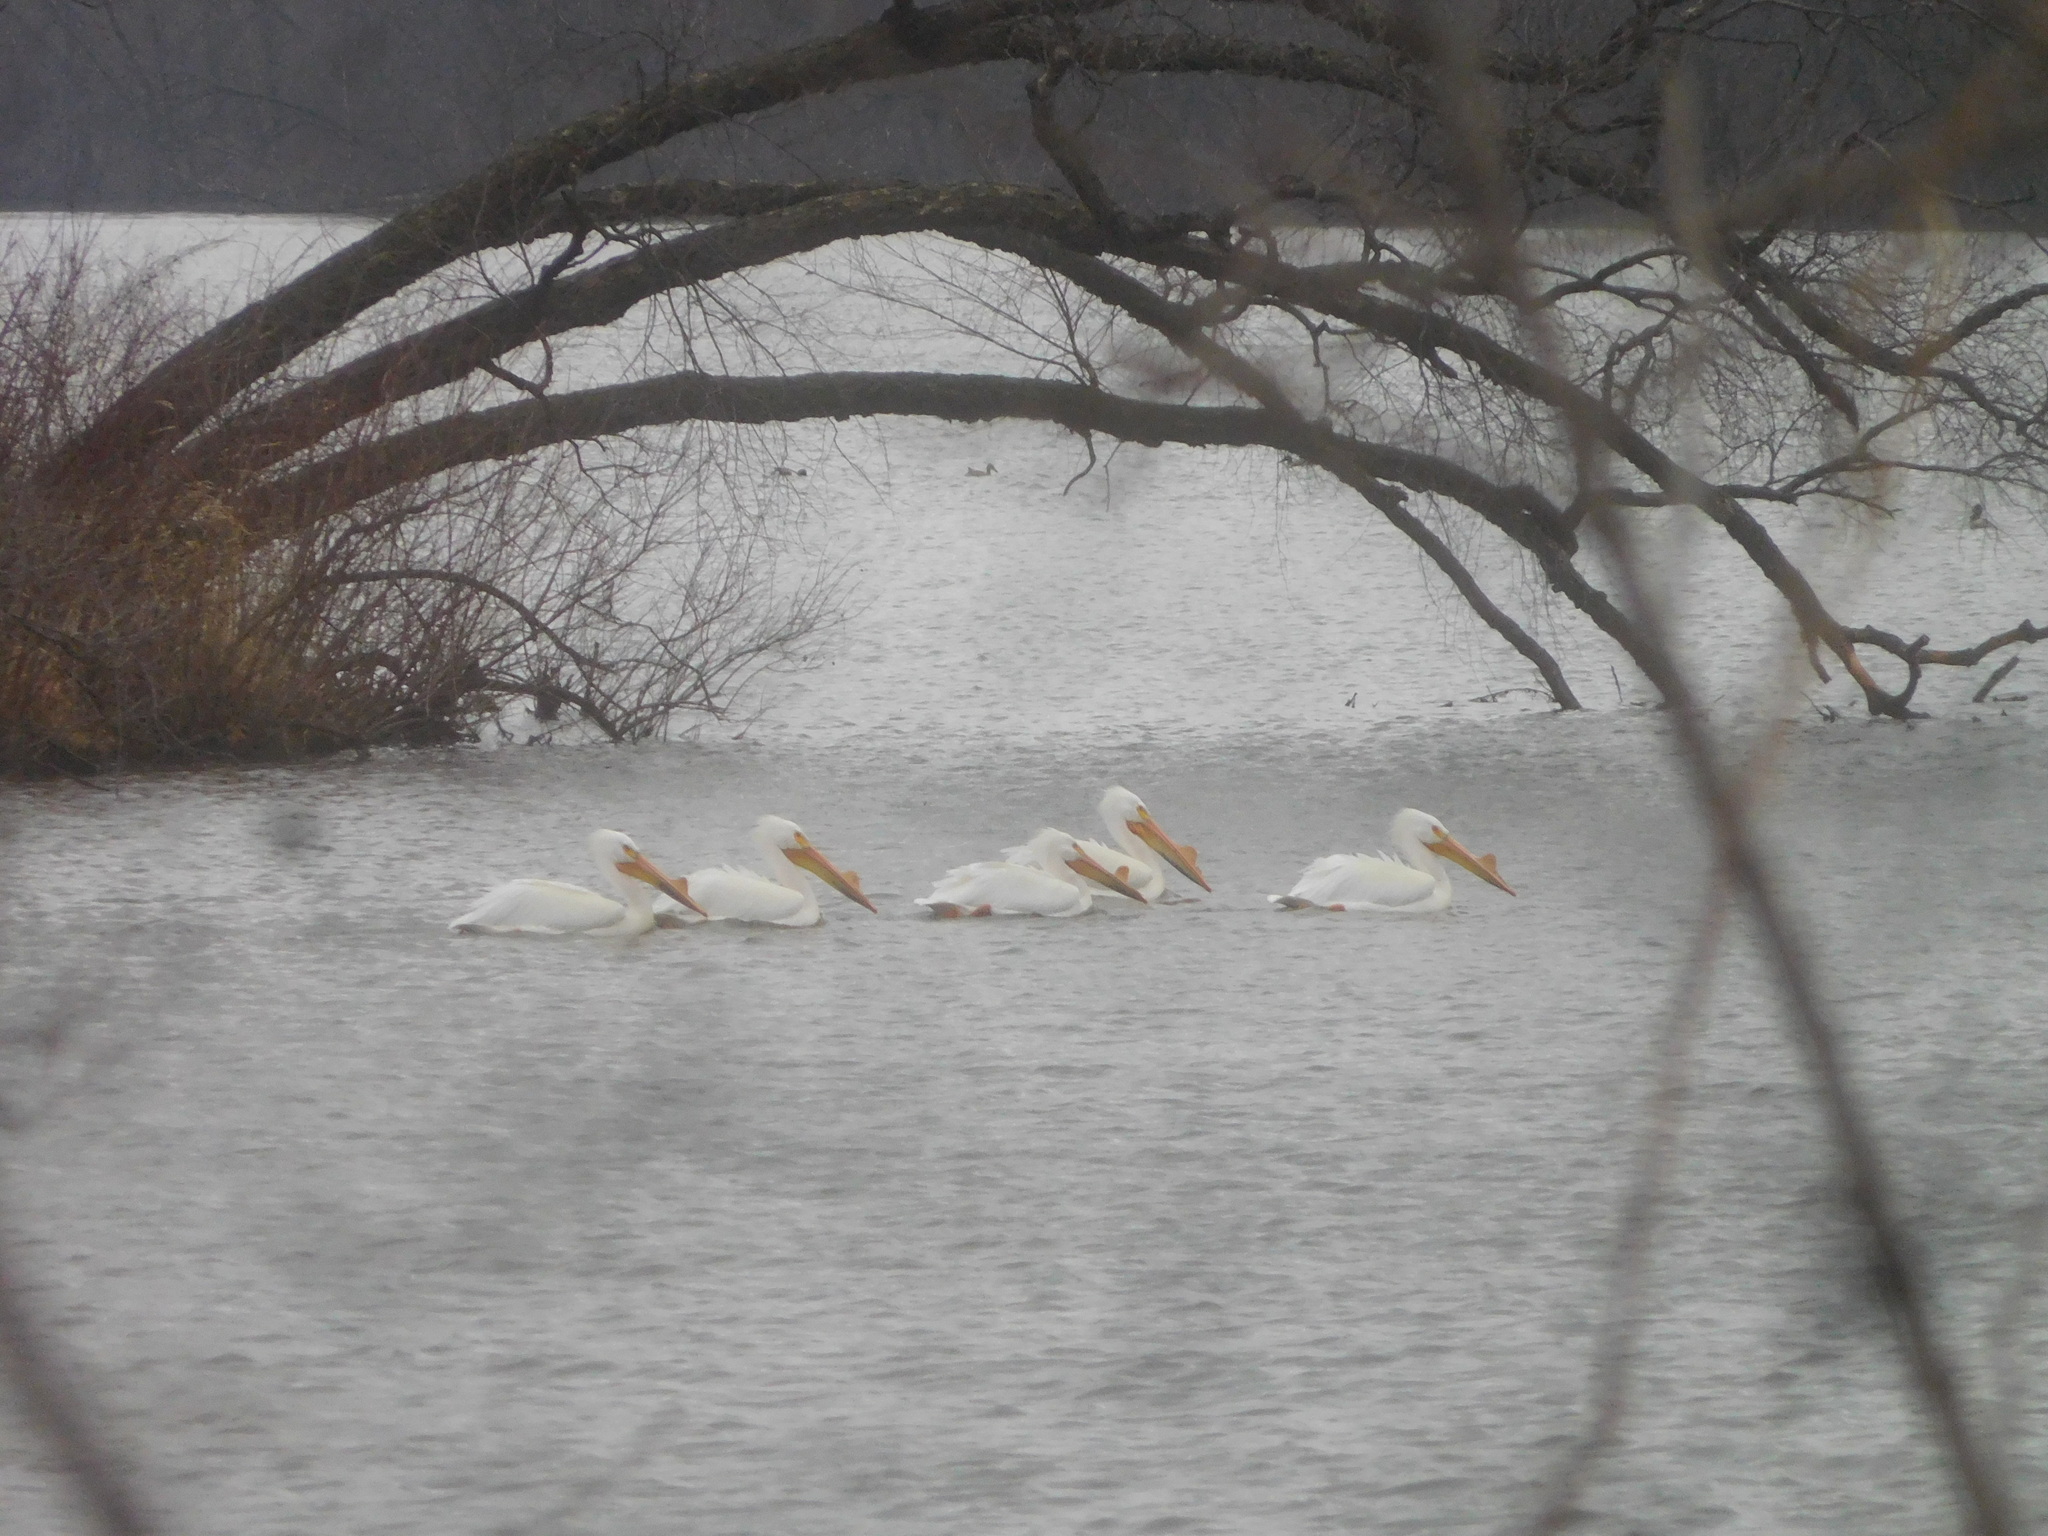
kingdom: Animalia
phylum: Chordata
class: Aves
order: Pelecaniformes
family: Pelecanidae
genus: Pelecanus
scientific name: Pelecanus erythrorhynchos
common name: American white pelican
